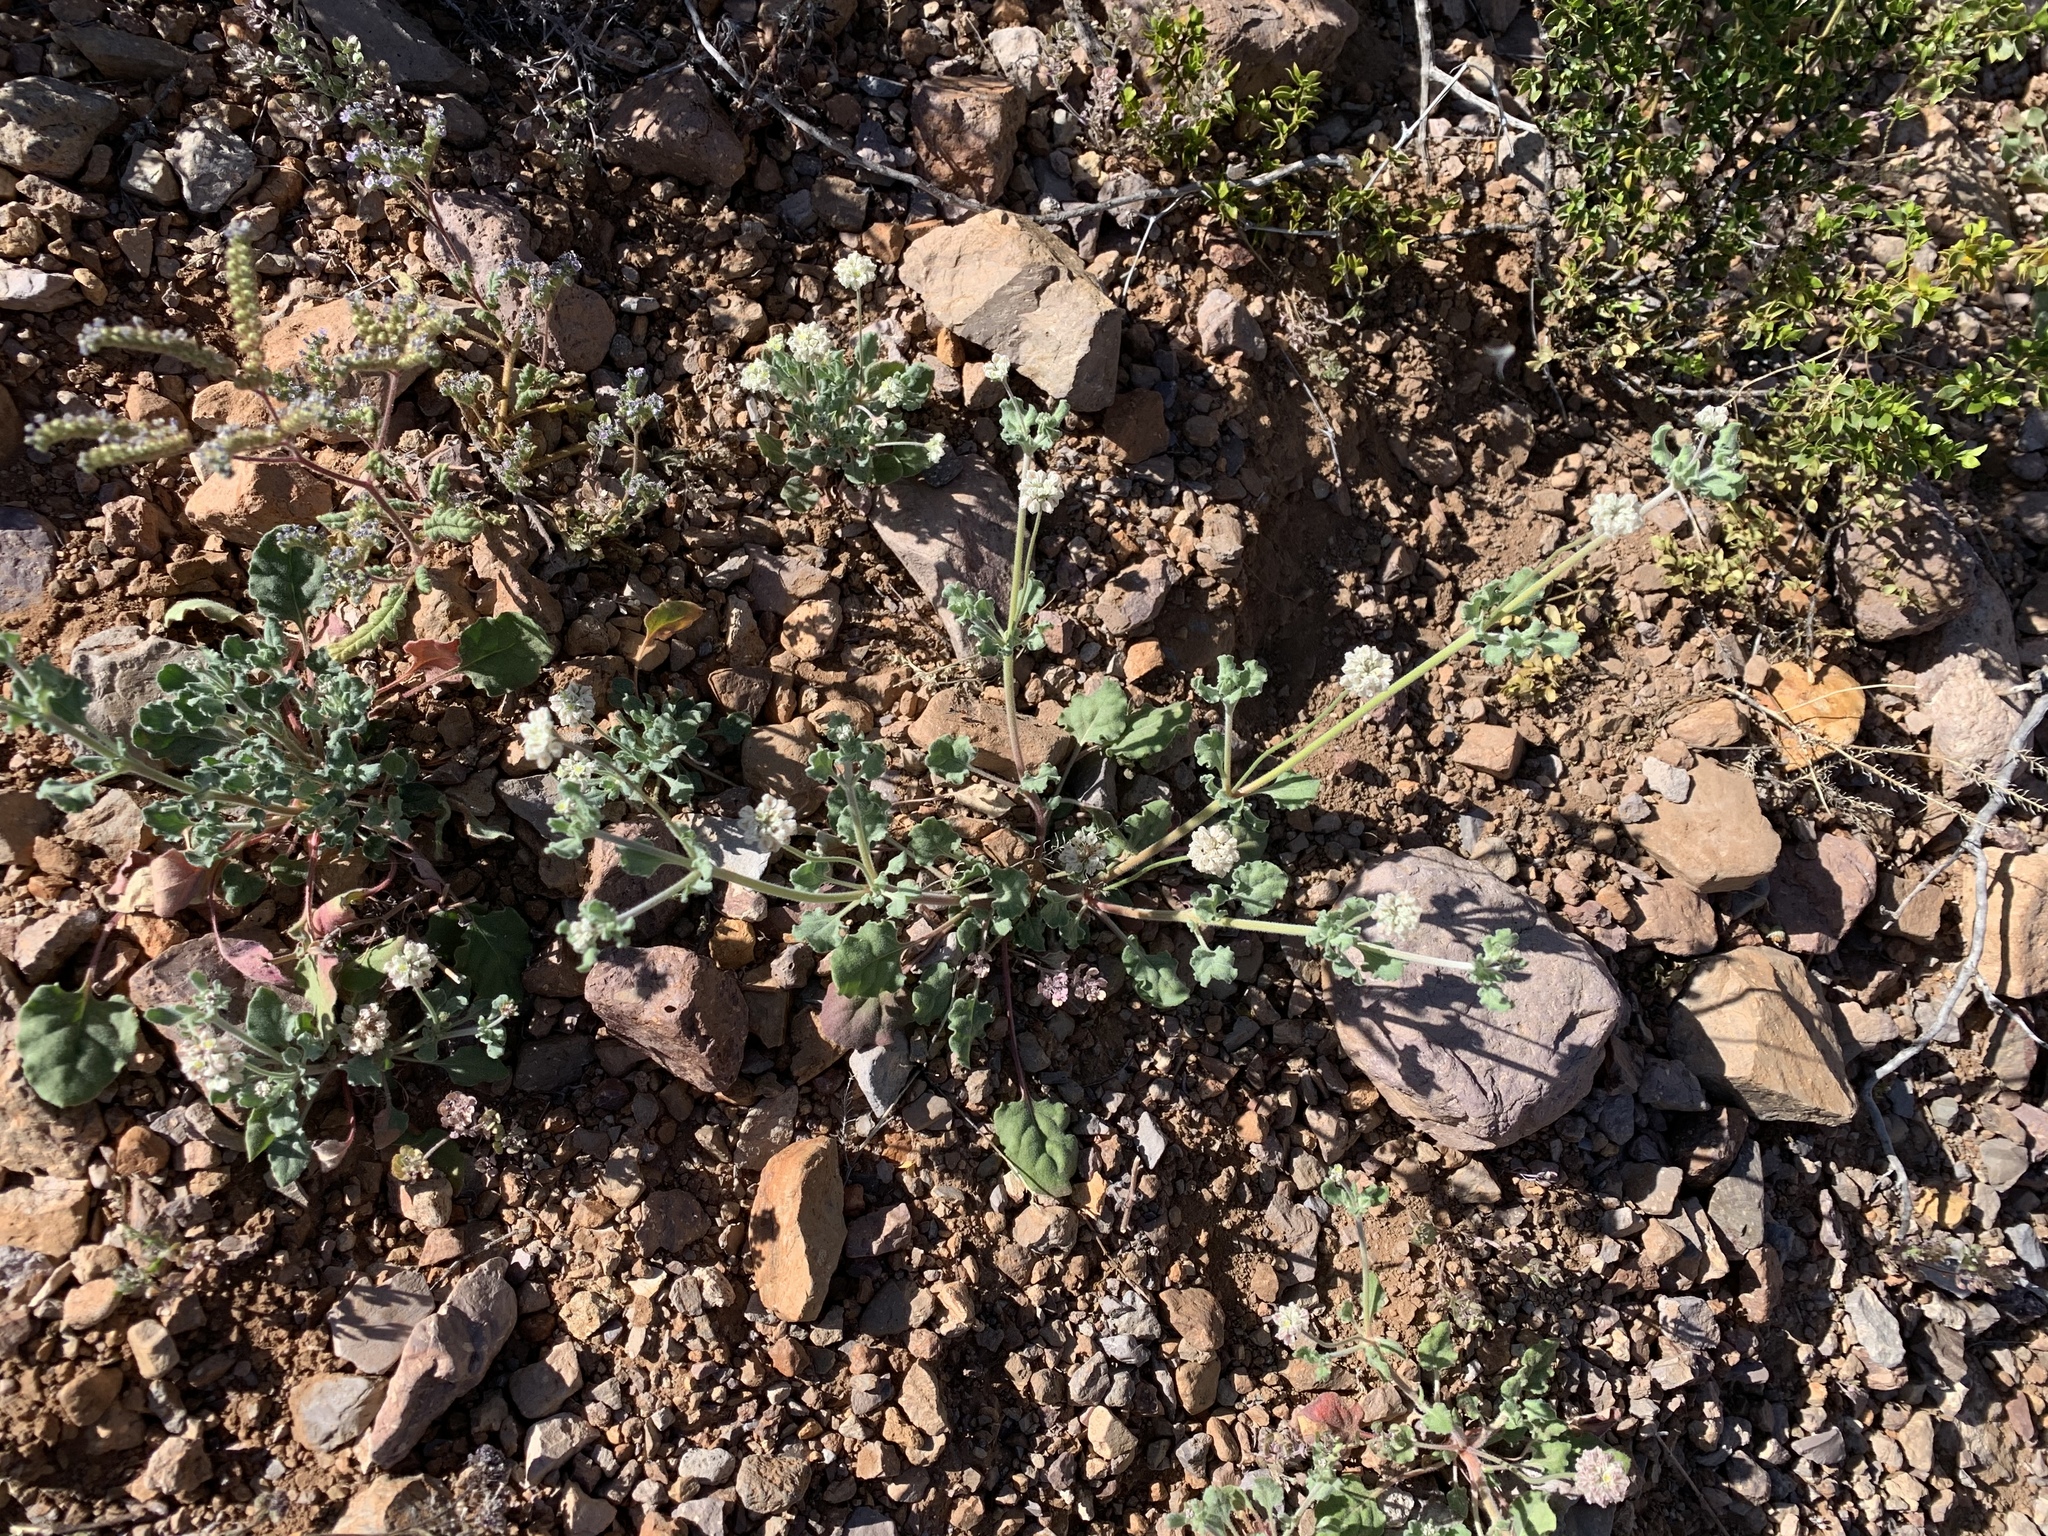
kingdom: Plantae
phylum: Tracheophyta
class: Magnoliopsida
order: Caryophyllales
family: Polygonaceae
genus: Eriogonum
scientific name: Eriogonum abertianum
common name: Abert's wild buckwheat
